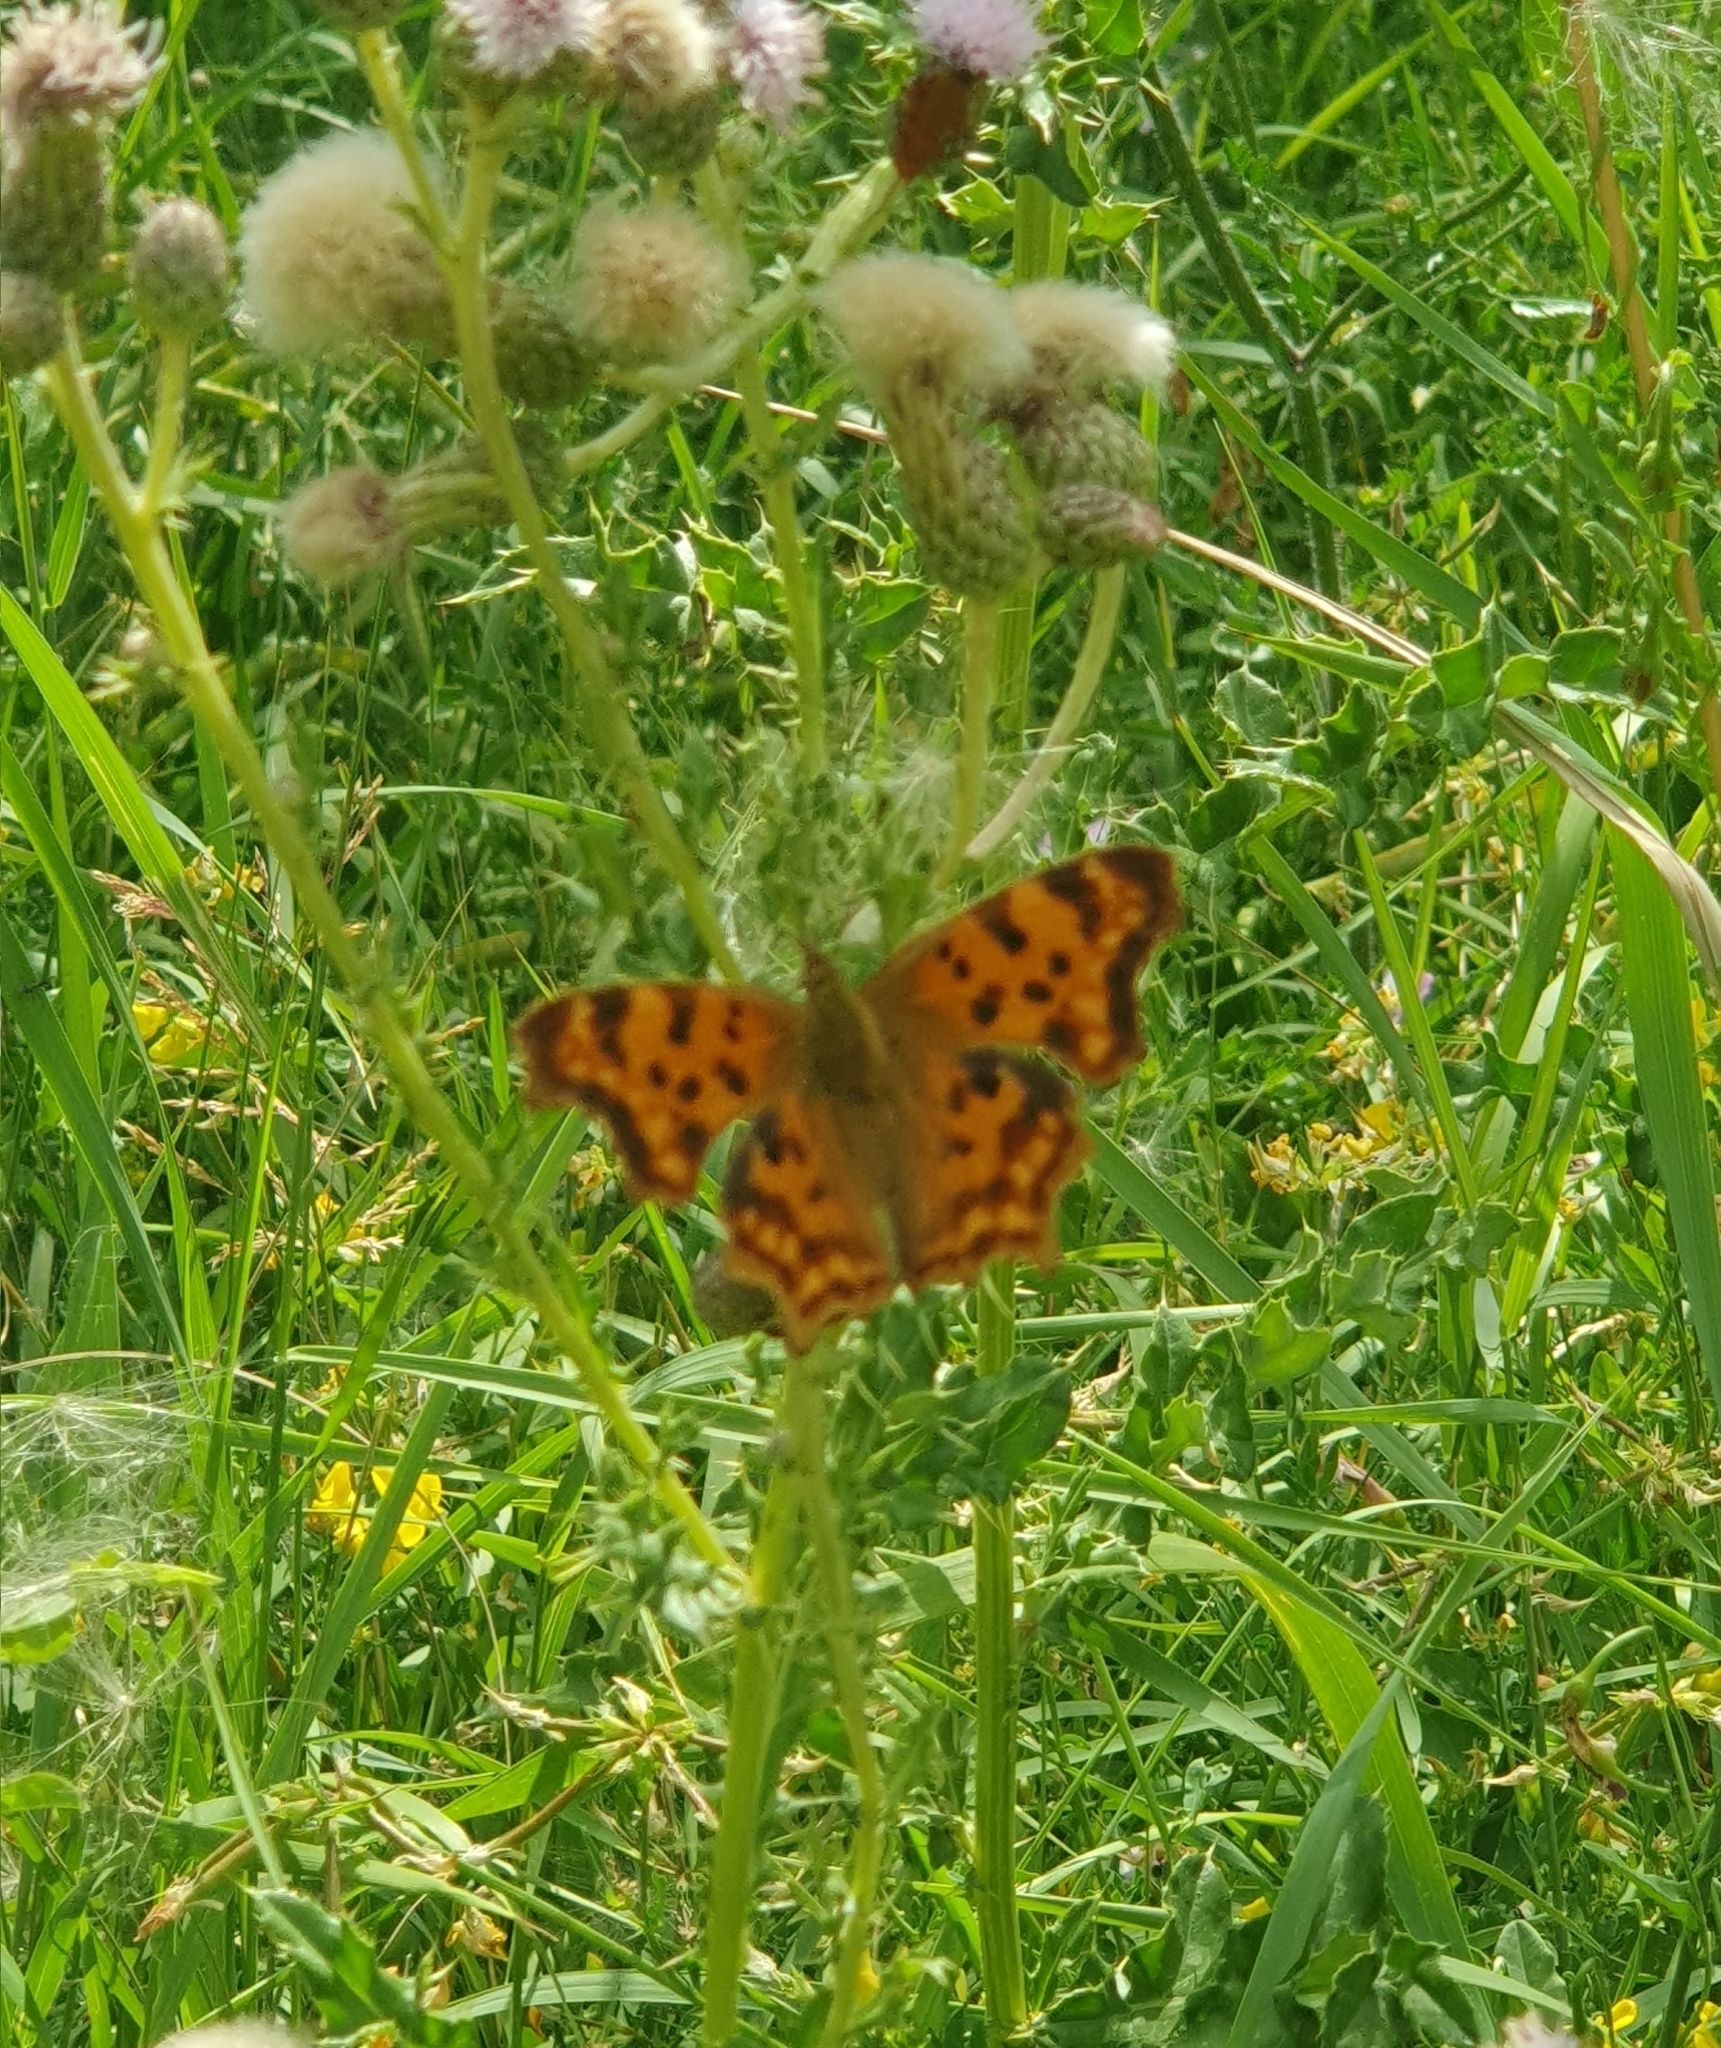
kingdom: Animalia
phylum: Arthropoda
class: Insecta
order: Lepidoptera
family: Nymphalidae
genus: Polygonia
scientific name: Polygonia c-album
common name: Comma
